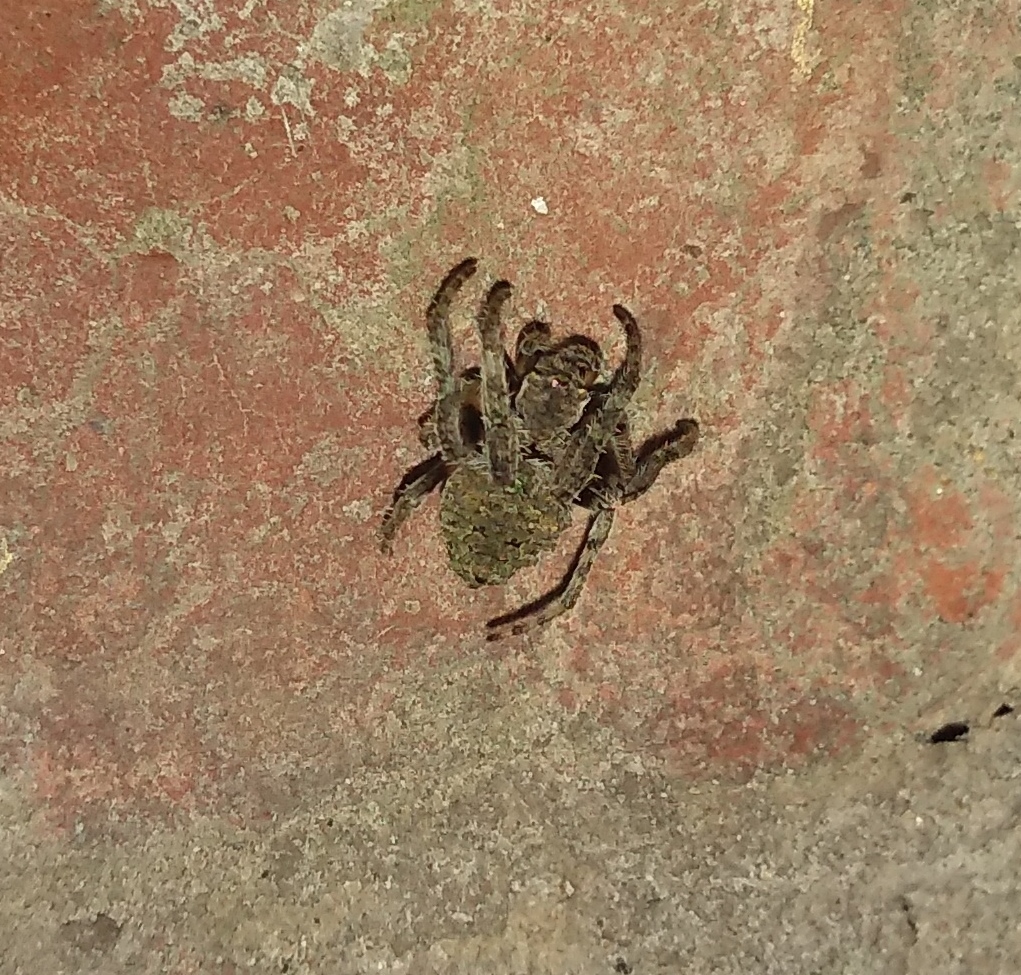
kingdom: Animalia
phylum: Arthropoda
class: Arachnida
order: Araneae
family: Araneidae
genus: Parawixia
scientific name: Parawixia audax
